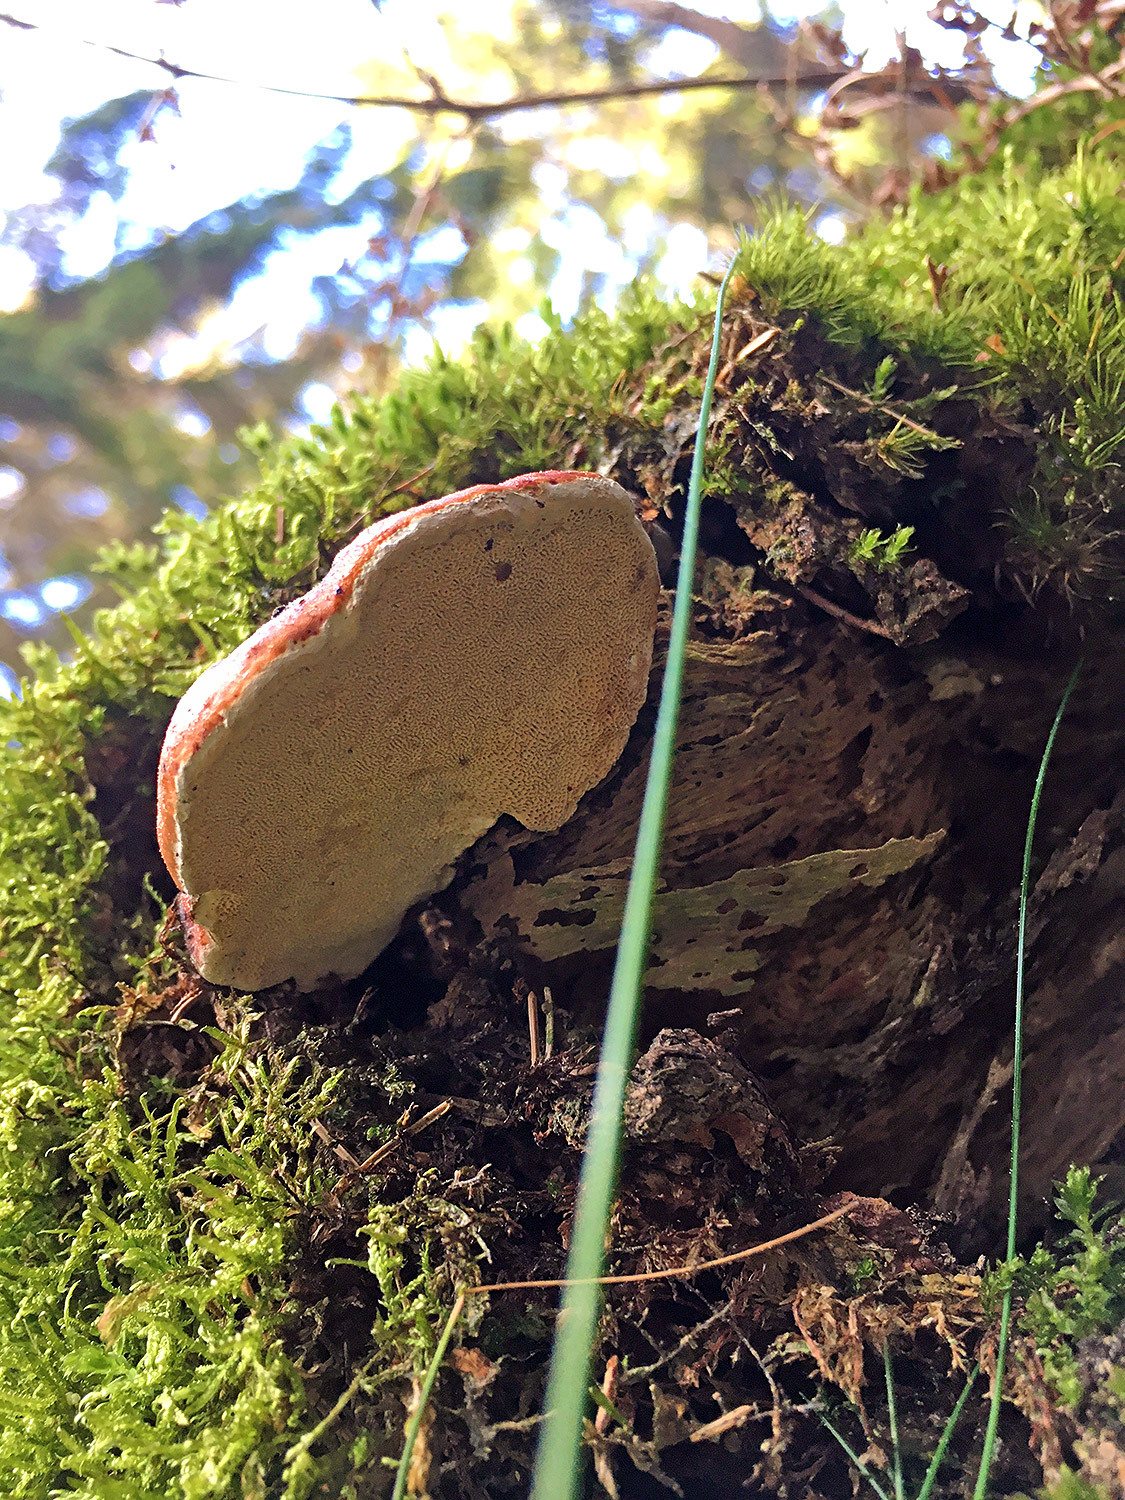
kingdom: Fungi
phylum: Basidiomycota
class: Agaricomycetes
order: Polyporales
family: Fomitopsidaceae
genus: Fomitopsis
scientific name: Fomitopsis pinicola
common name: Red-belted bracket
